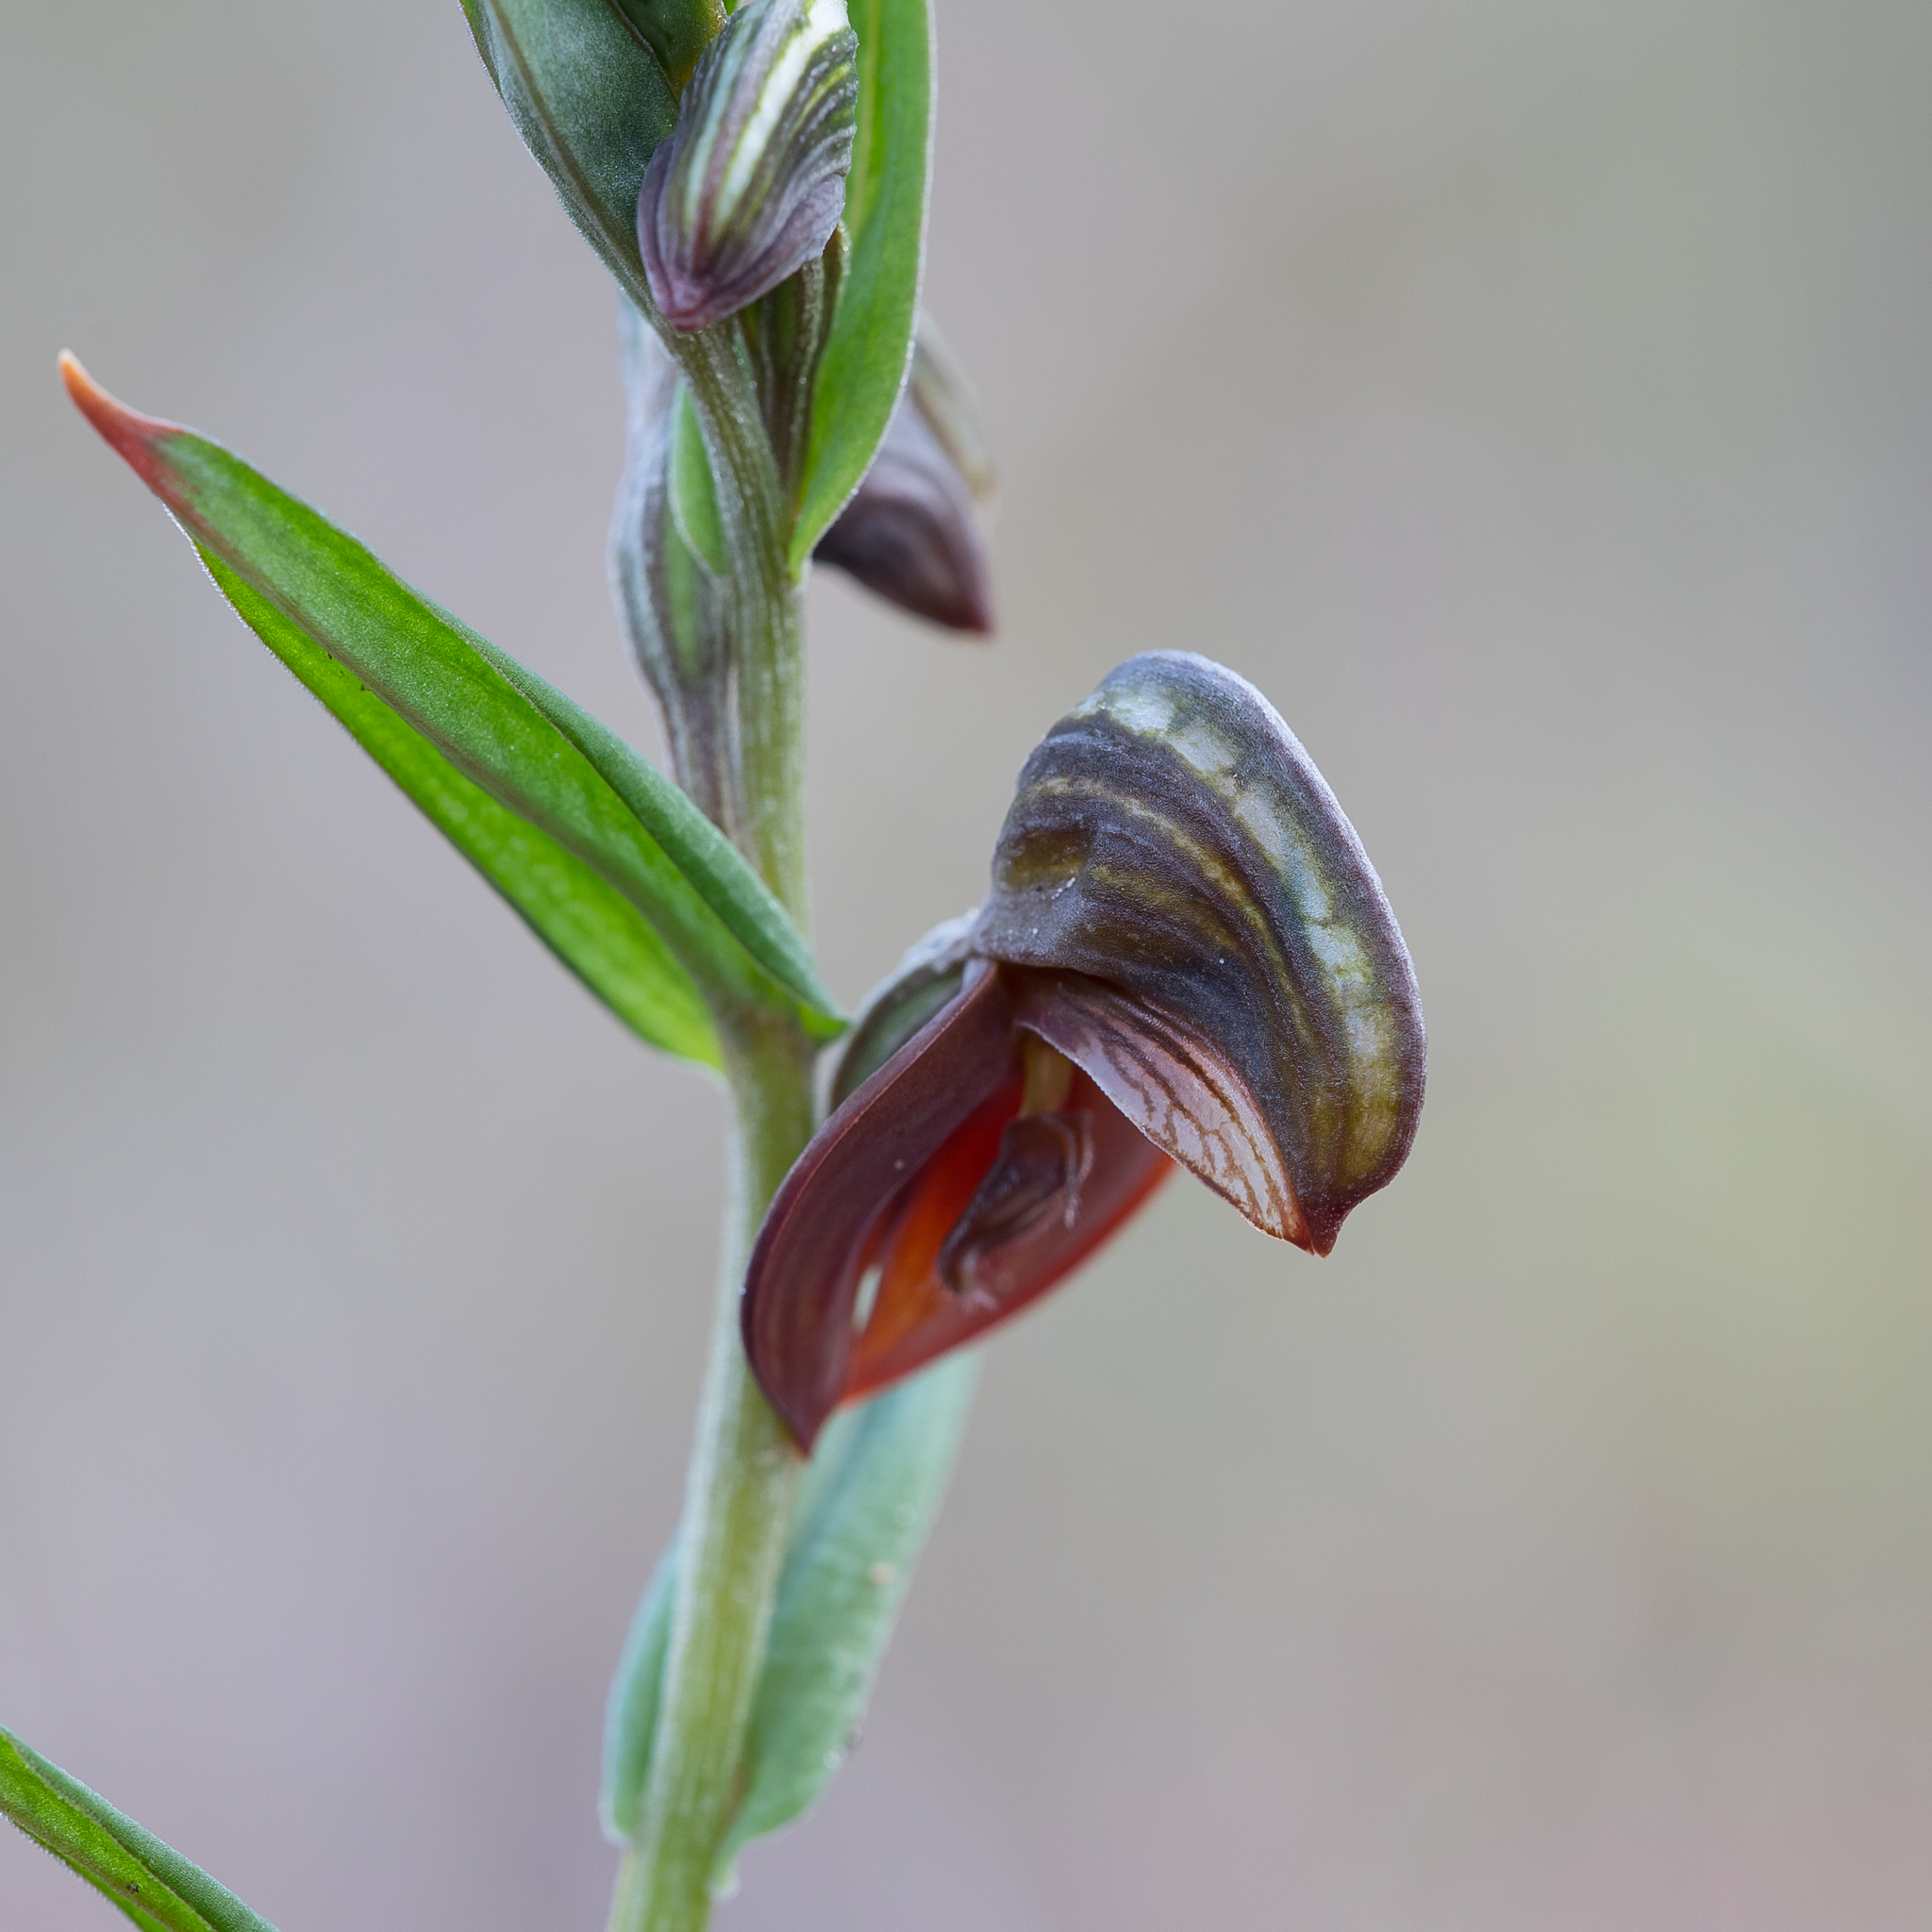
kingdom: Plantae
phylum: Tracheophyta
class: Liliopsida
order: Asparagales
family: Orchidaceae
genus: Pterostylis
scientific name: Pterostylis sanguinea
